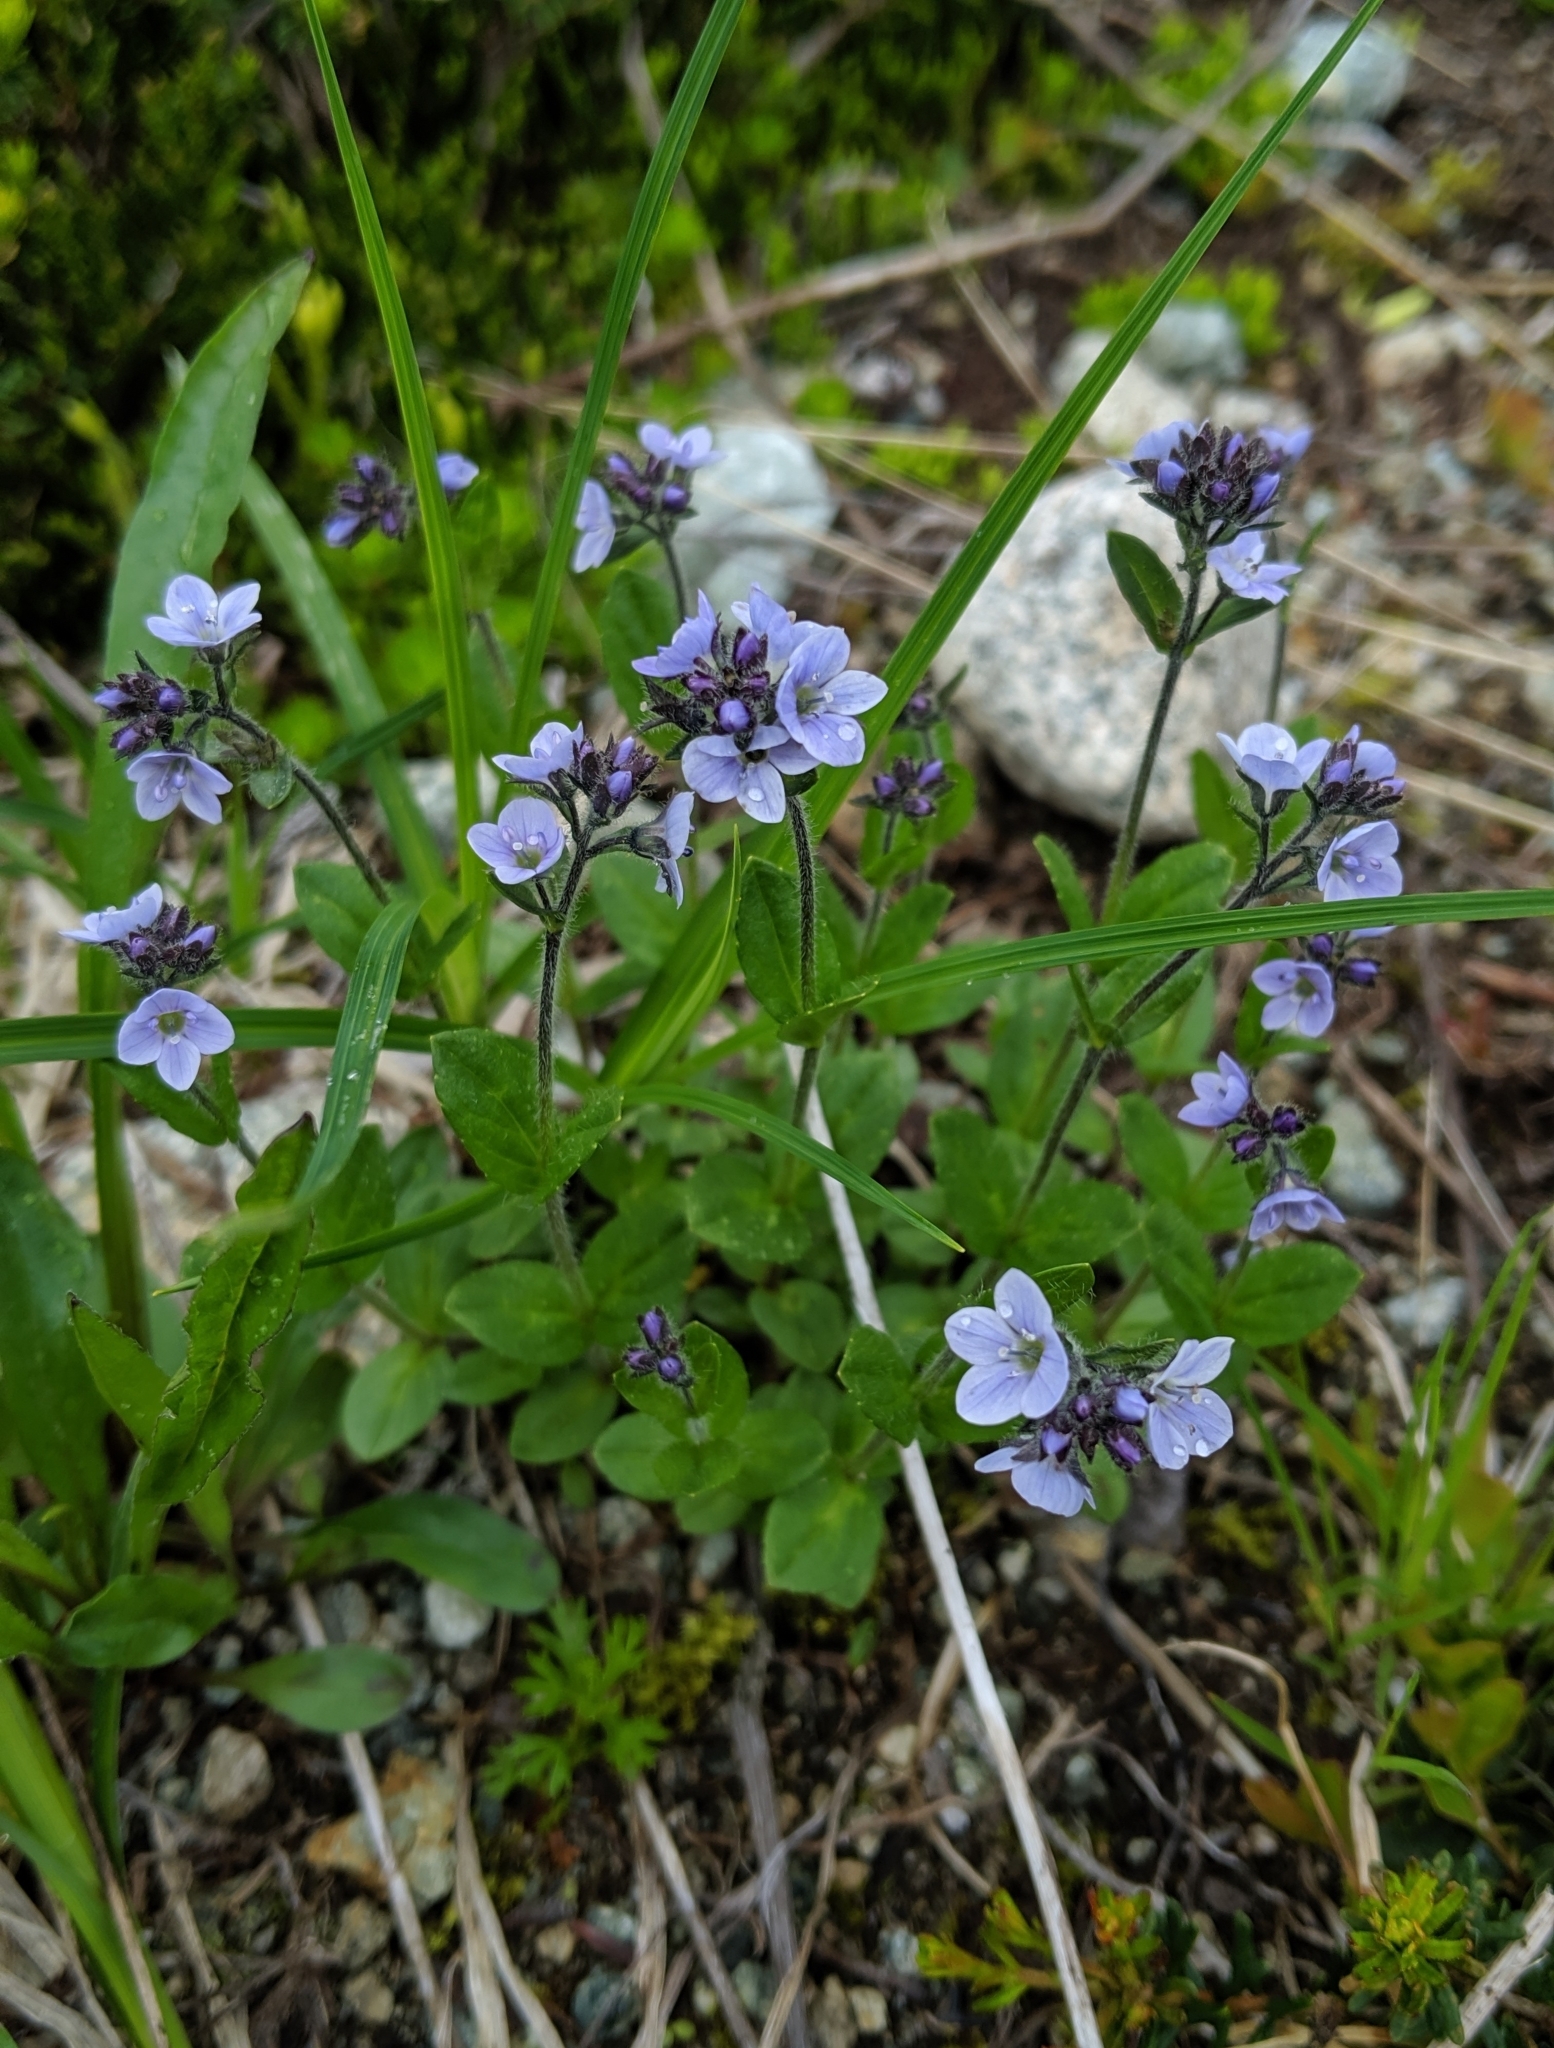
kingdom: Plantae
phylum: Tracheophyta
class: Magnoliopsida
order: Lamiales
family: Plantaginaceae
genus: Veronica
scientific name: Veronica wormskjoldii
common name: American alpine speedwell
